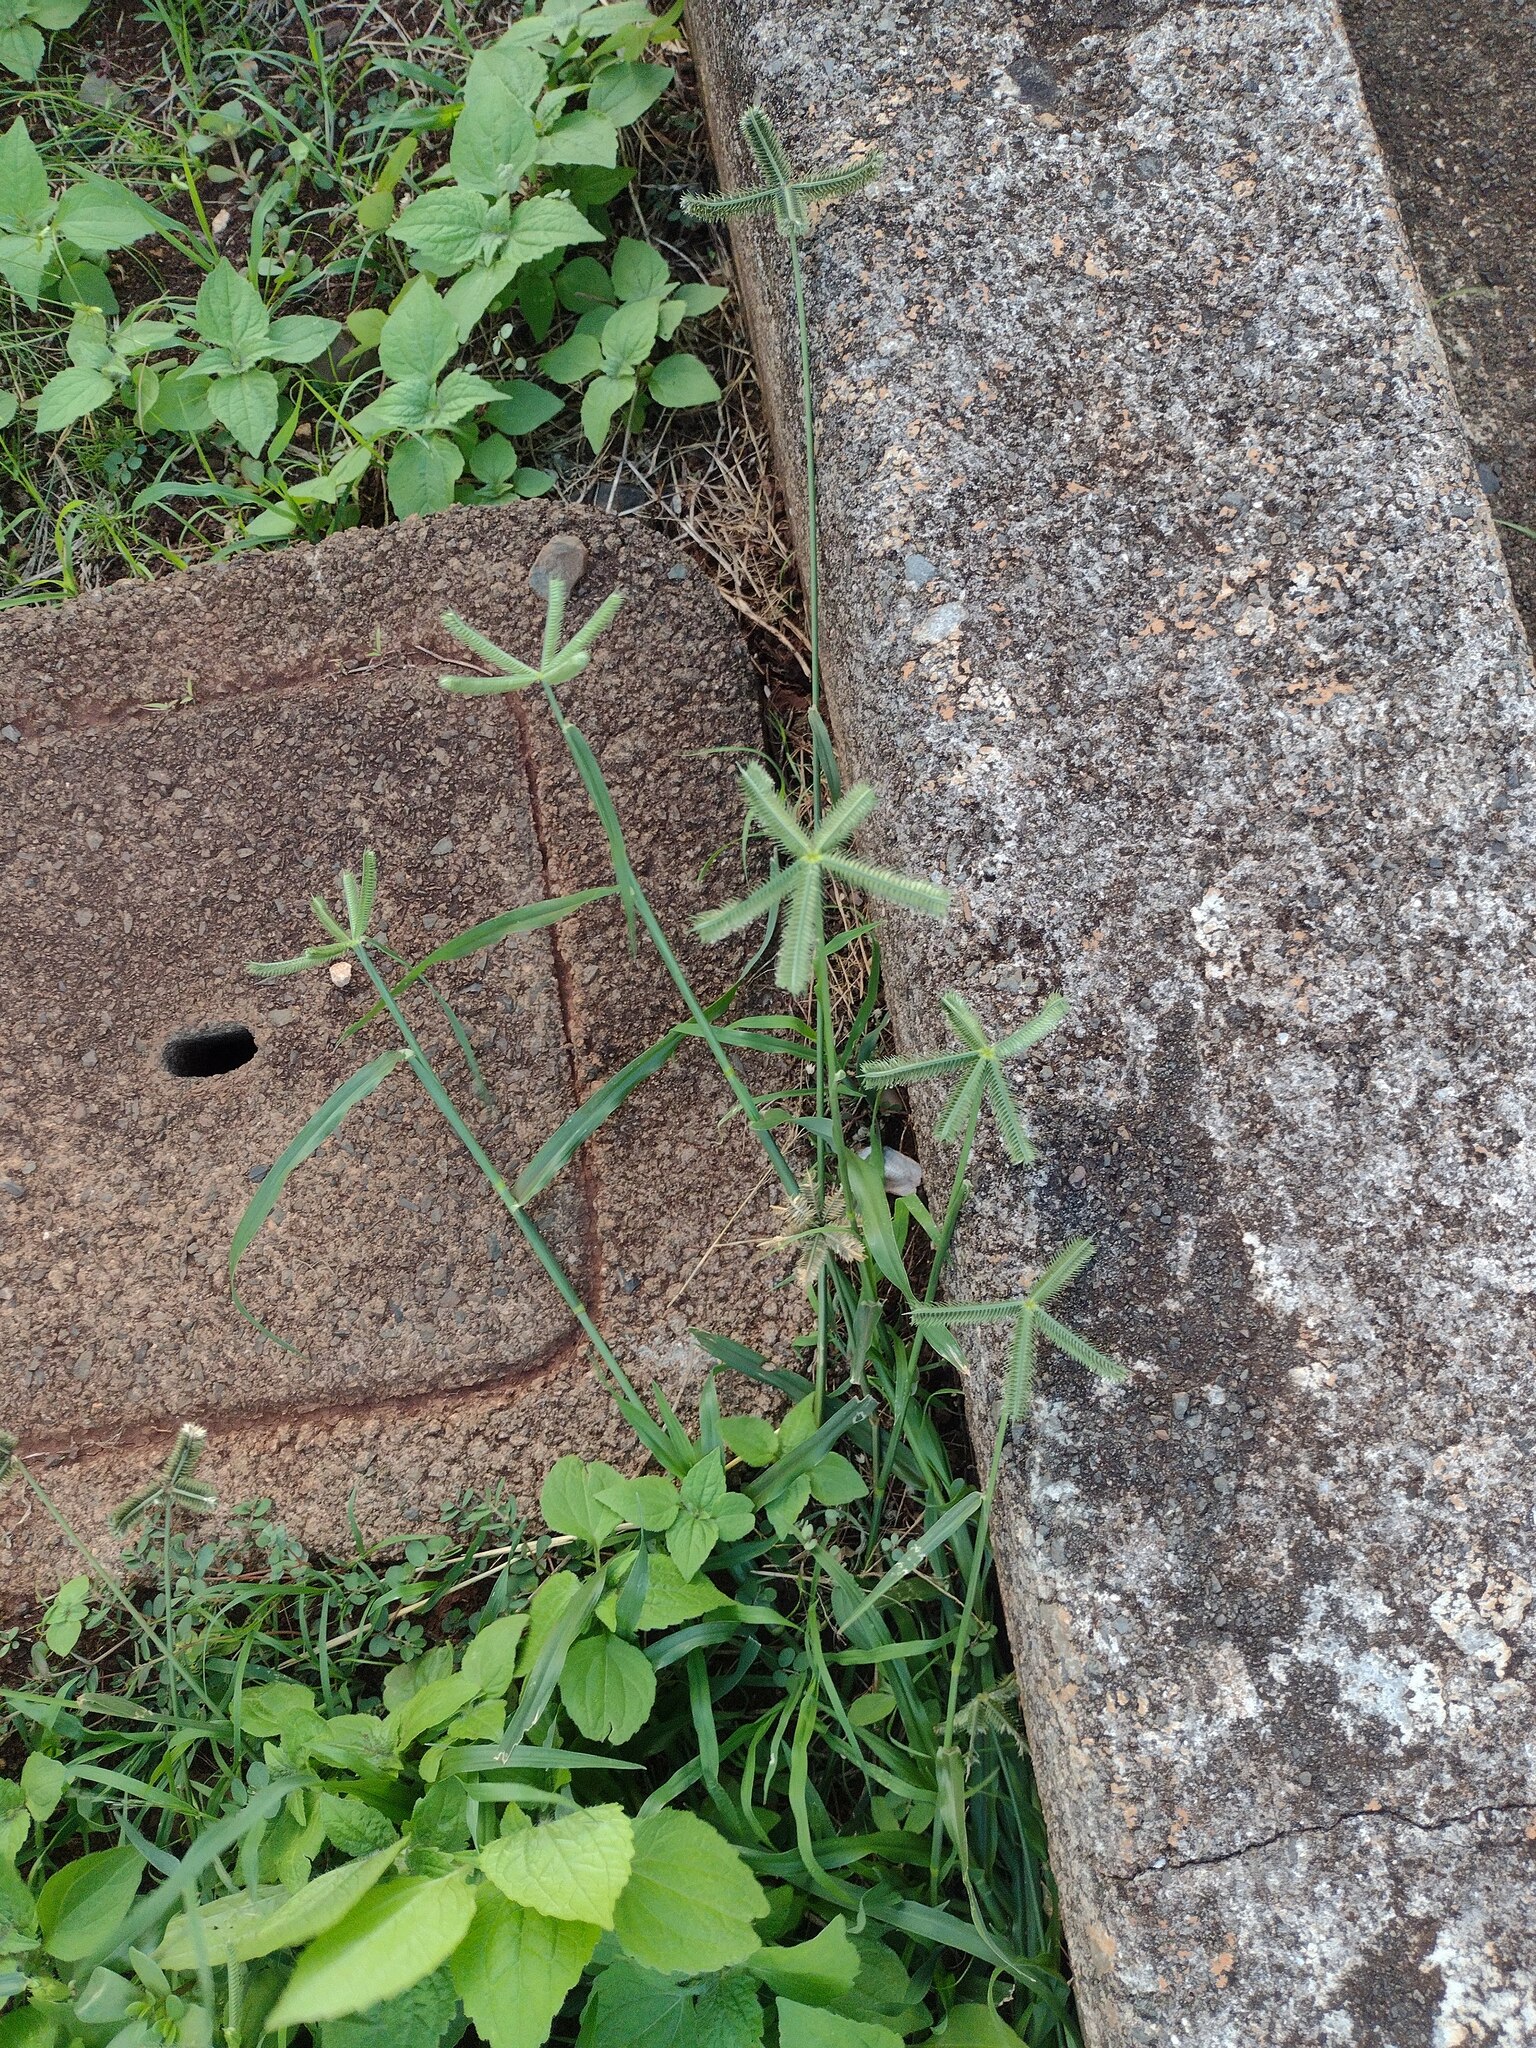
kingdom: Plantae
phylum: Tracheophyta
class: Liliopsida
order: Poales
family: Poaceae
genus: Dactyloctenium
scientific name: Dactyloctenium aegyptium
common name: Egyptian grass
